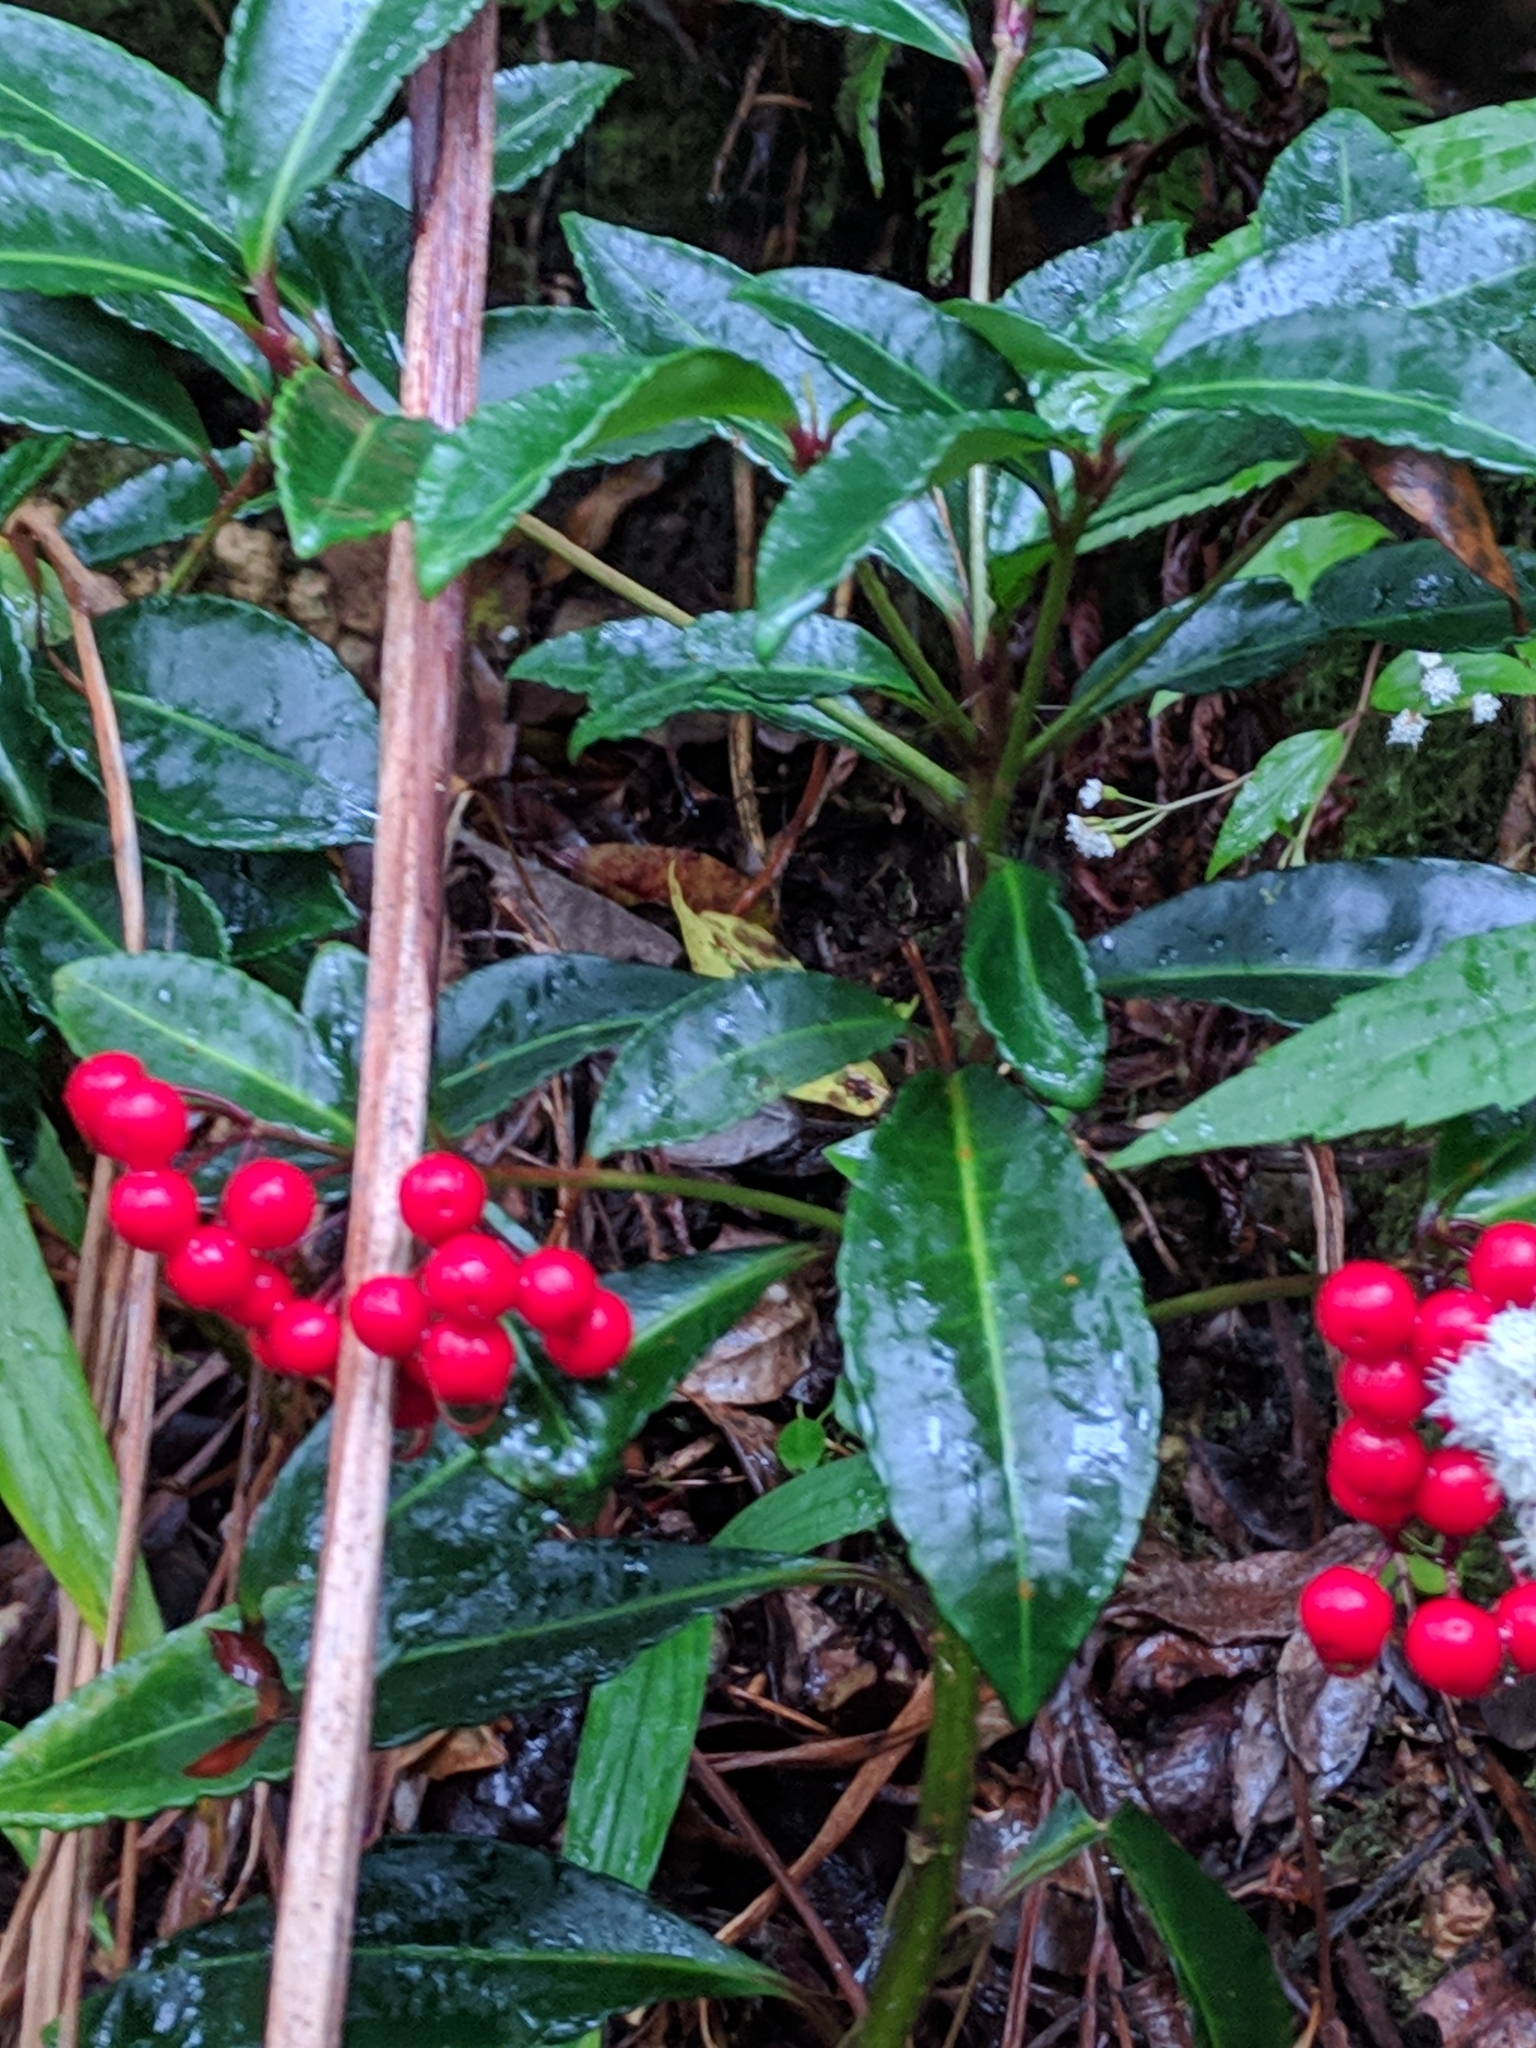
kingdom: Plantae
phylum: Tracheophyta
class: Magnoliopsida
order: Ericales
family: Primulaceae
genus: Ardisia
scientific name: Ardisia crenata
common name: Hen's eyes
